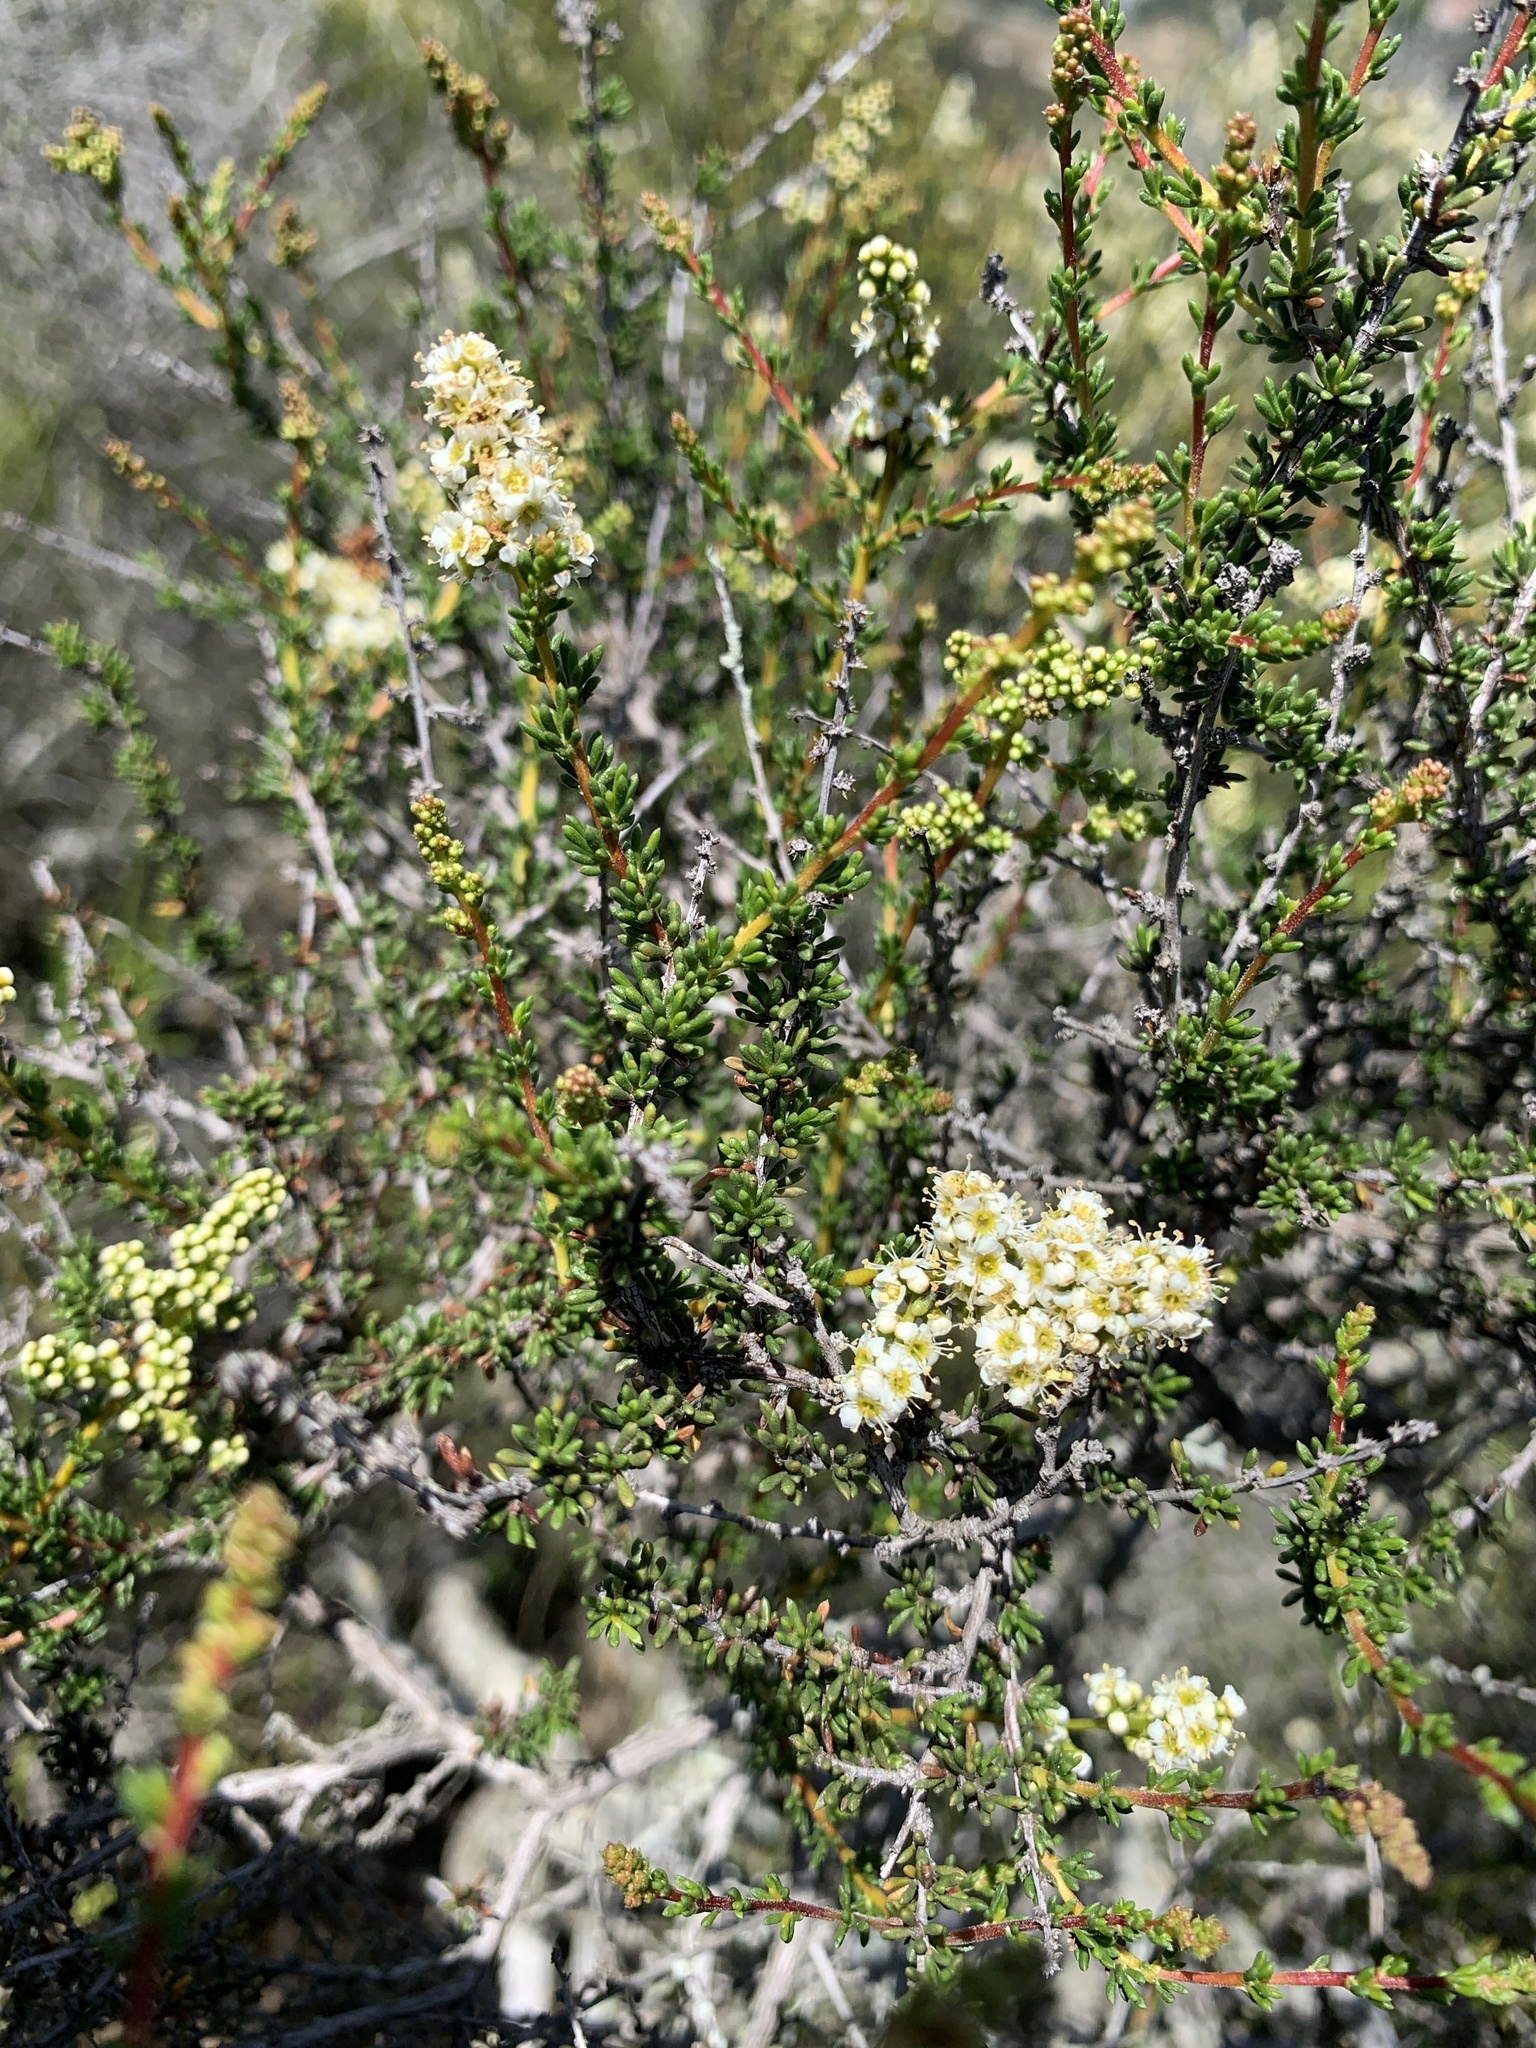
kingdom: Plantae
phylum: Tracheophyta
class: Magnoliopsida
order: Rosales
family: Rosaceae
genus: Adenostoma
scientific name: Adenostoma fasciculatum
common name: Chamise
